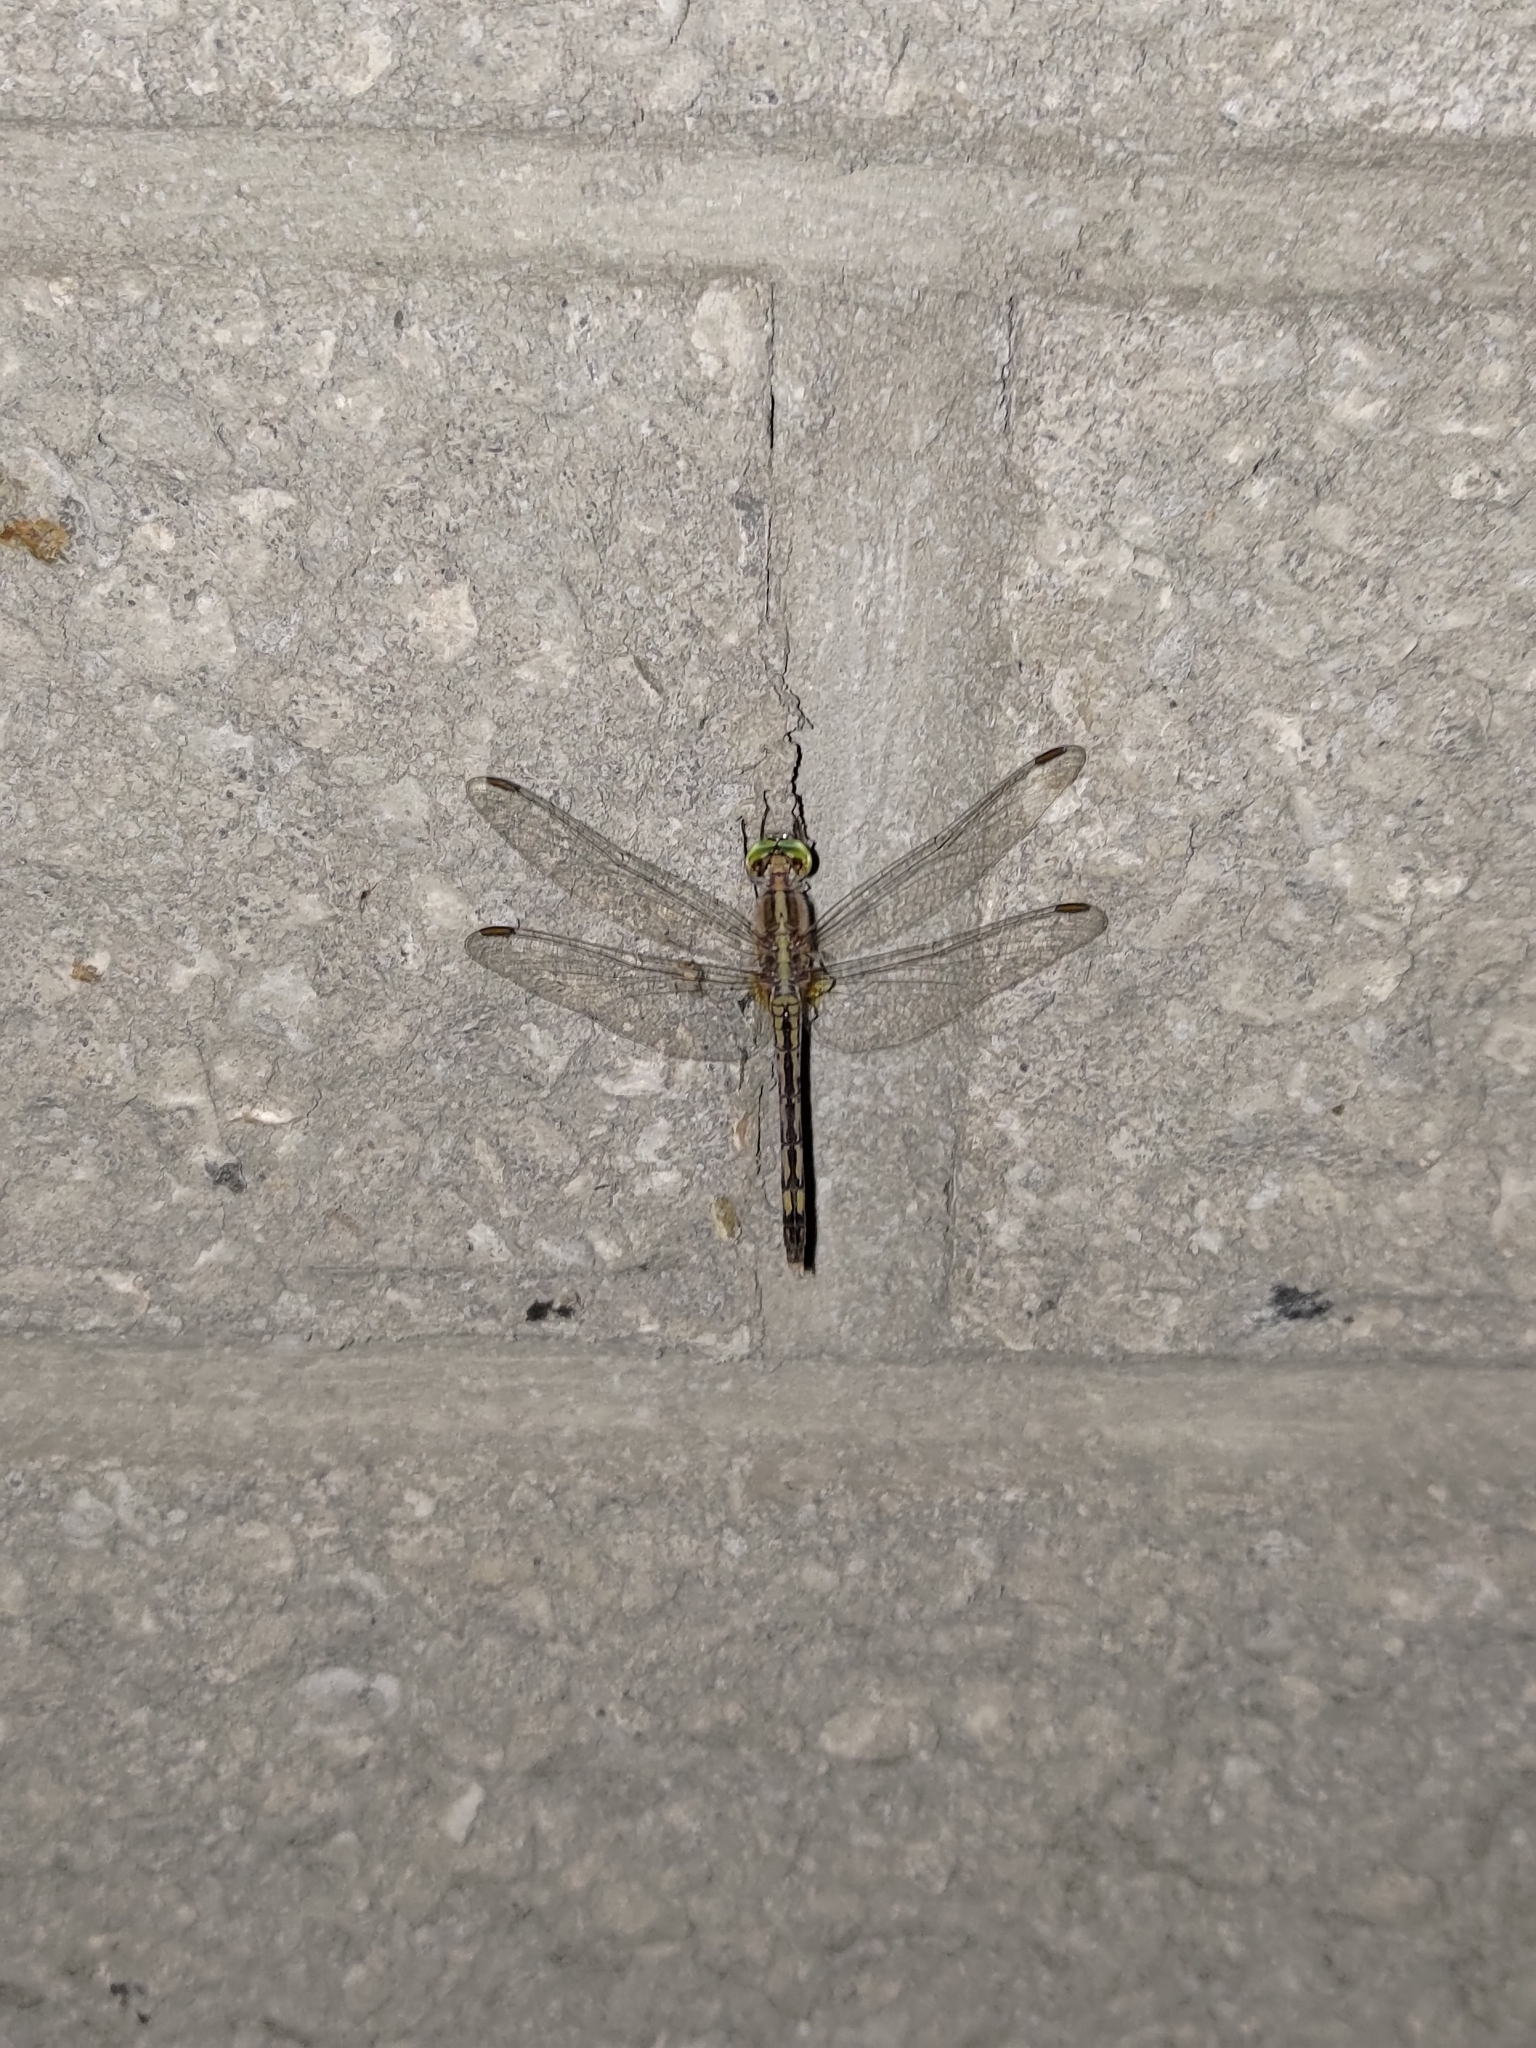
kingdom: Animalia
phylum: Arthropoda
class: Insecta
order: Odonata
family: Libellulidae
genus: Diplacodes
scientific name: Diplacodes trivialis
